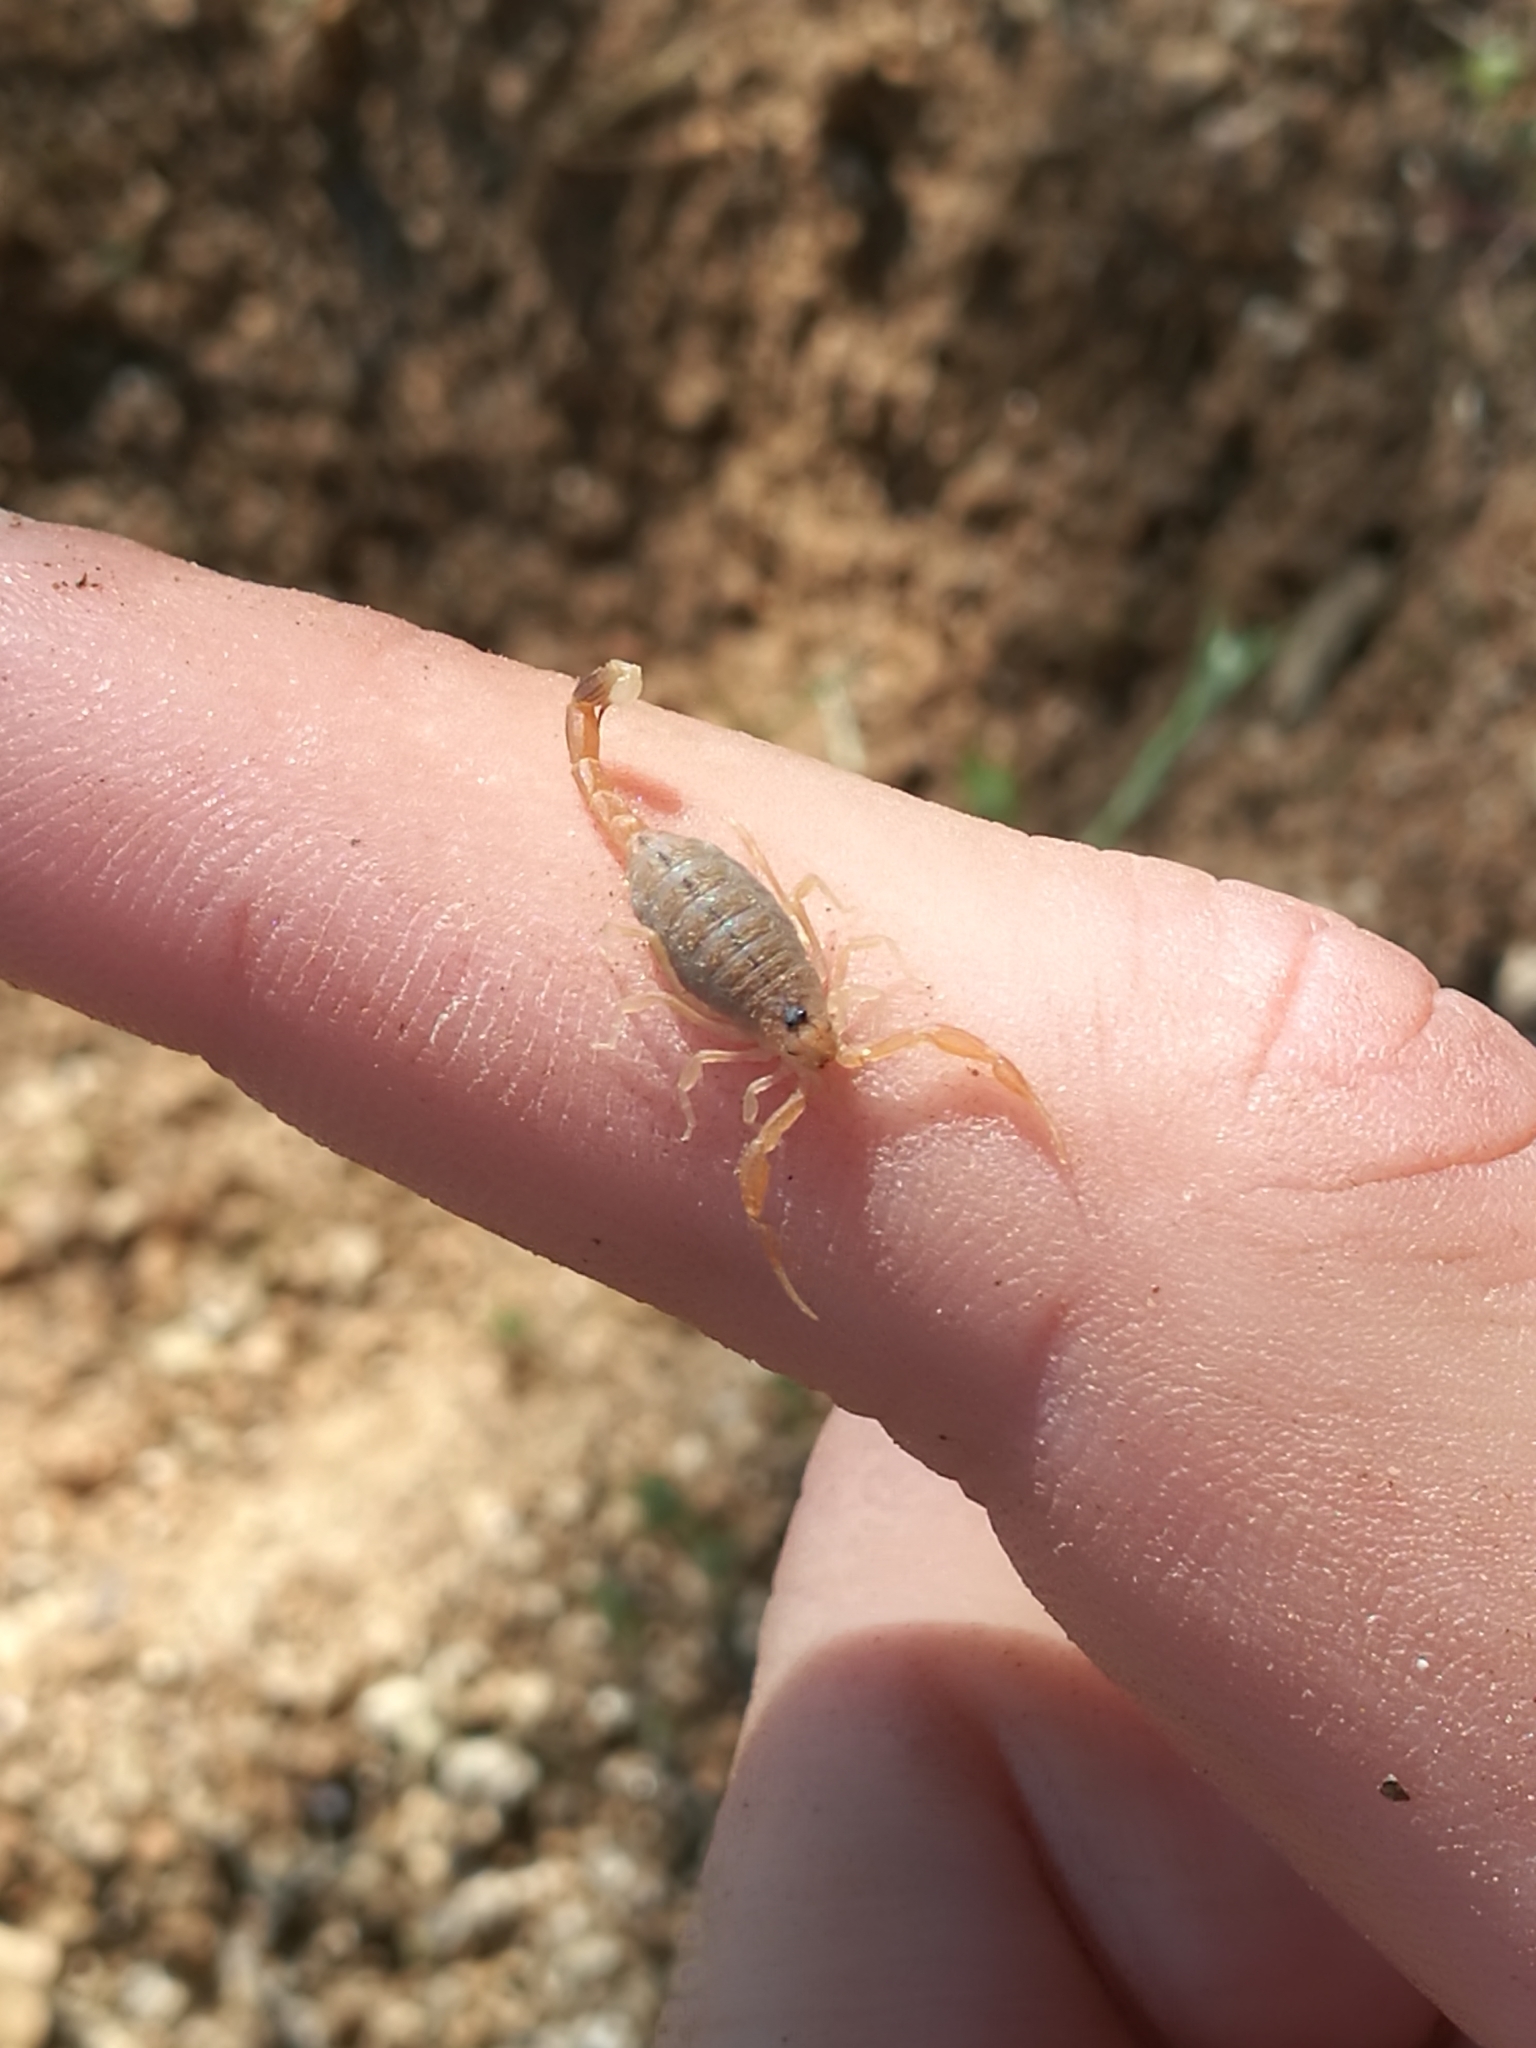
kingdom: Animalia
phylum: Arthropoda
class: Arachnida
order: Scorpiones
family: Buthidae
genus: Buthus
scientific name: Buthus occitanus
